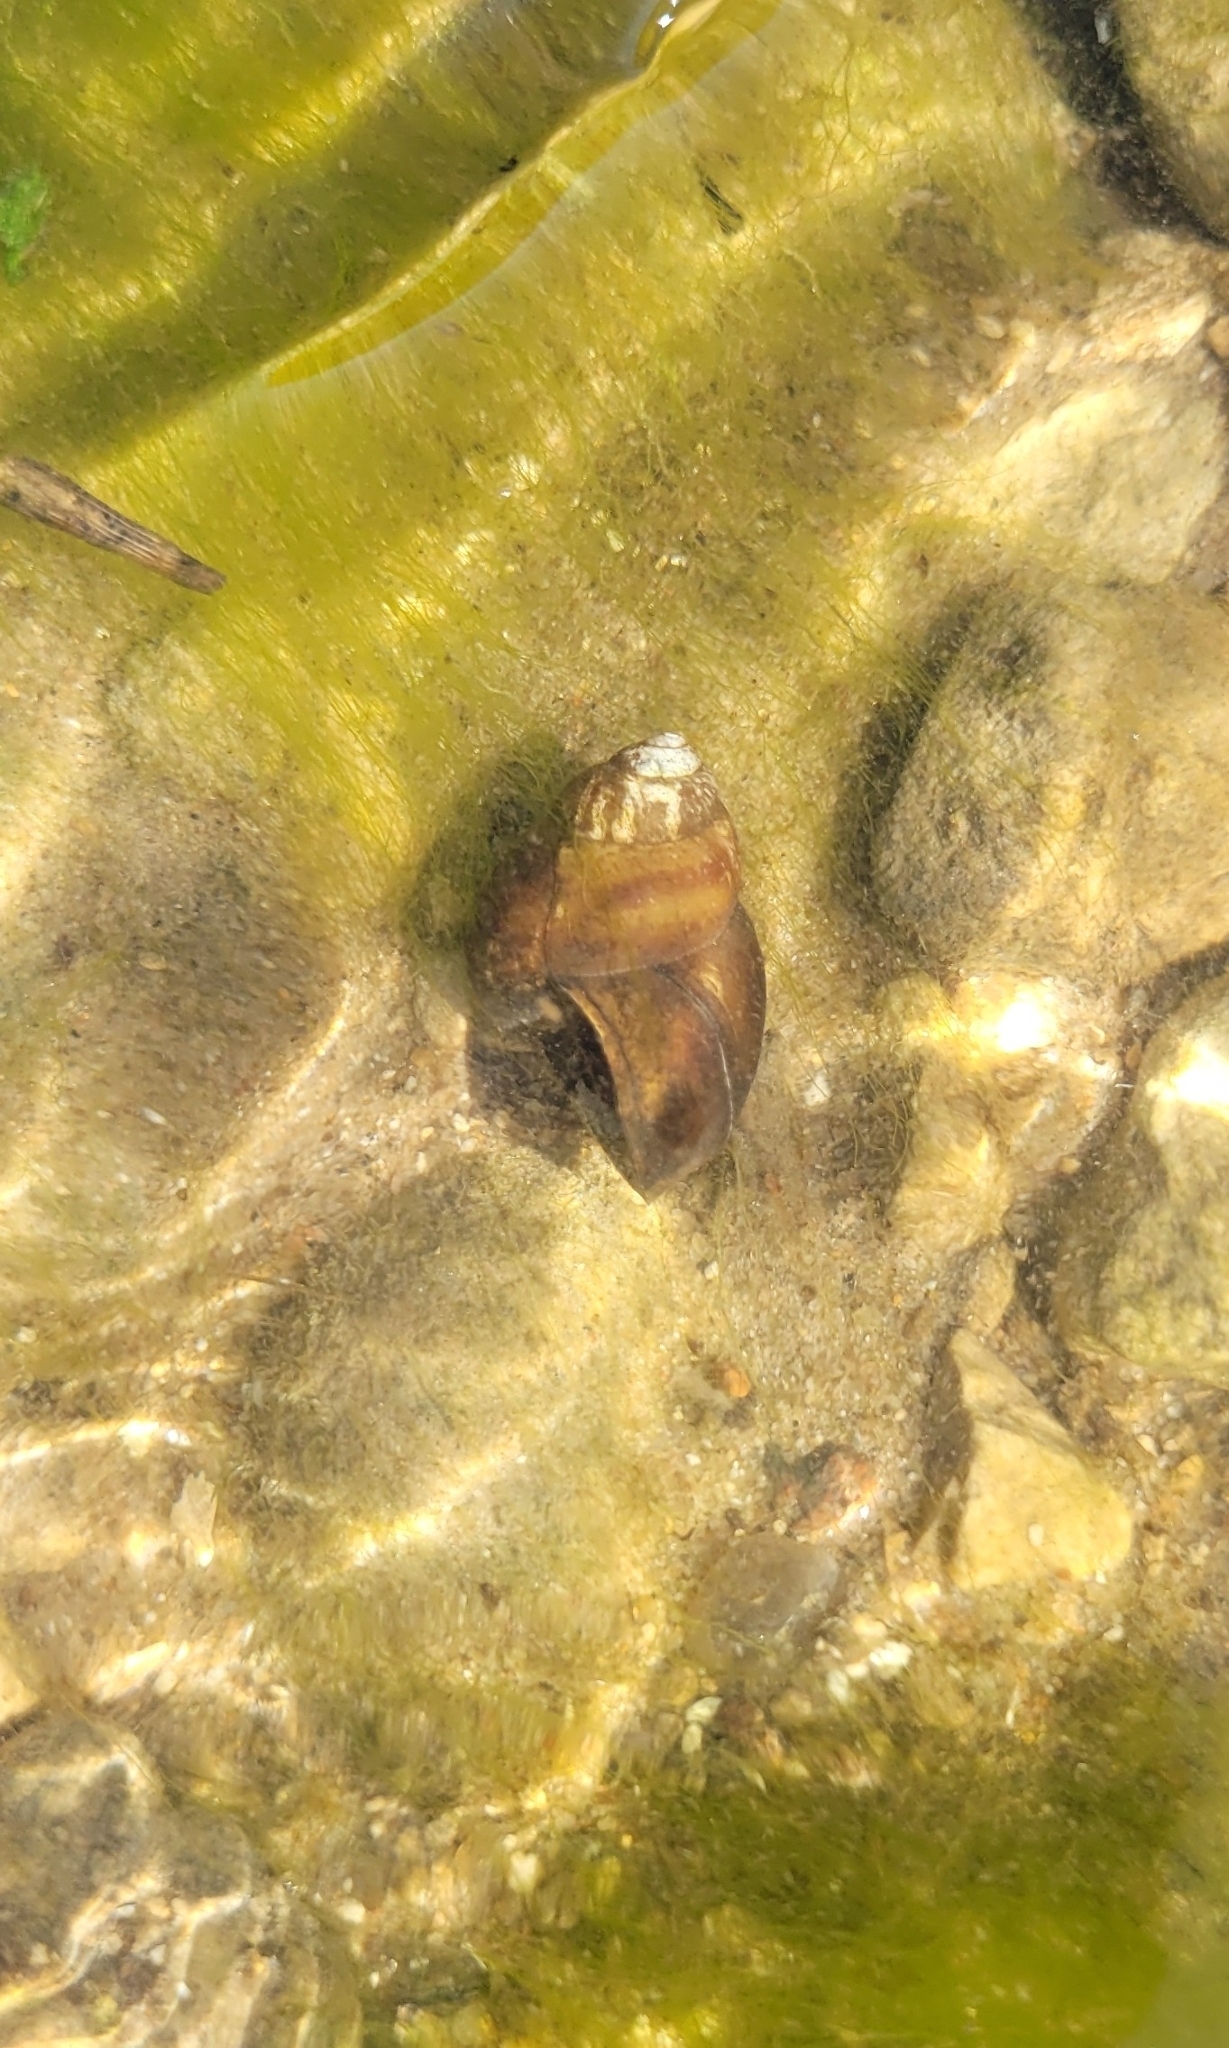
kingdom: Animalia
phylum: Mollusca
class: Gastropoda
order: Architaenioglossa
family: Viviparidae
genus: Viviparus
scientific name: Viviparus viviparus
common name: River snail
